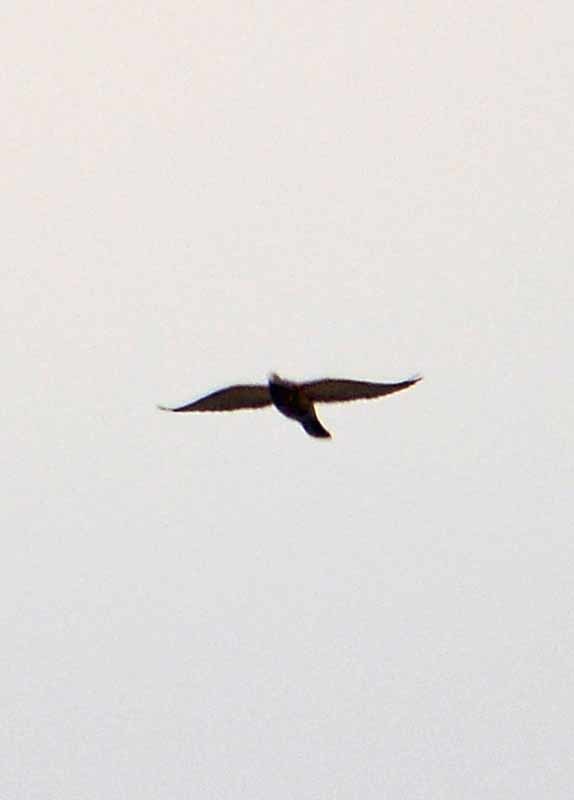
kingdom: Animalia
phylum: Chordata
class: Aves
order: Columbiformes
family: Columbidae
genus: Columba
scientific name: Columba livia
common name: Rock pigeon
